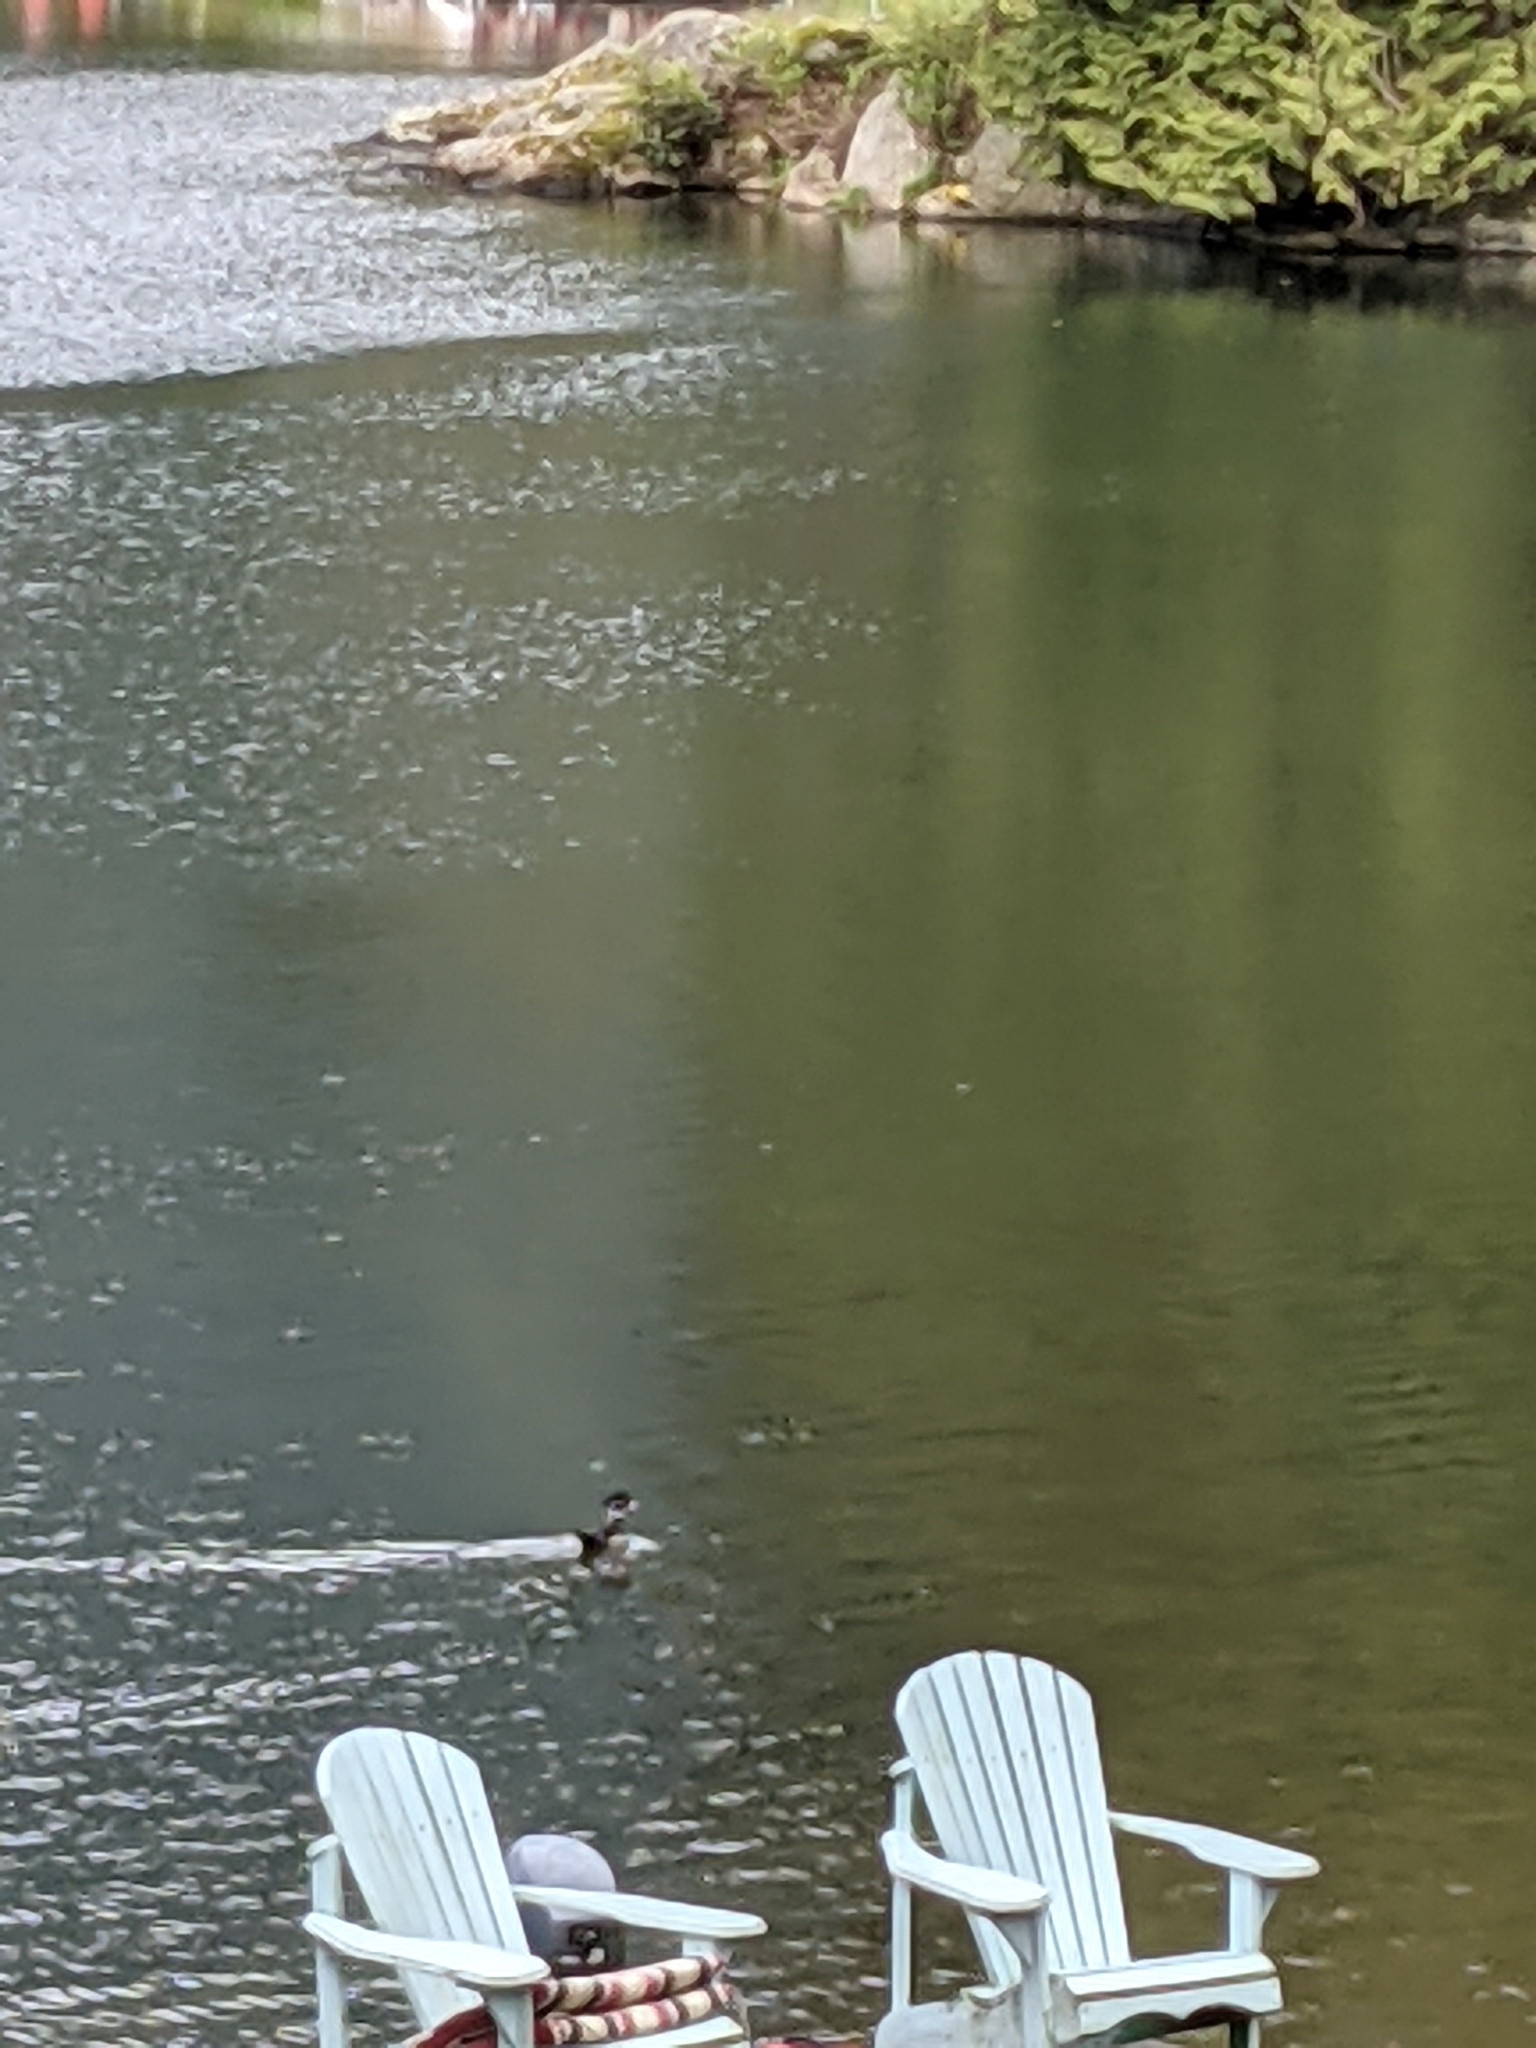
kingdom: Animalia
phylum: Chordata
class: Aves
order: Anseriformes
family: Anatidae
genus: Aix
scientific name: Aix sponsa
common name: Wood duck
